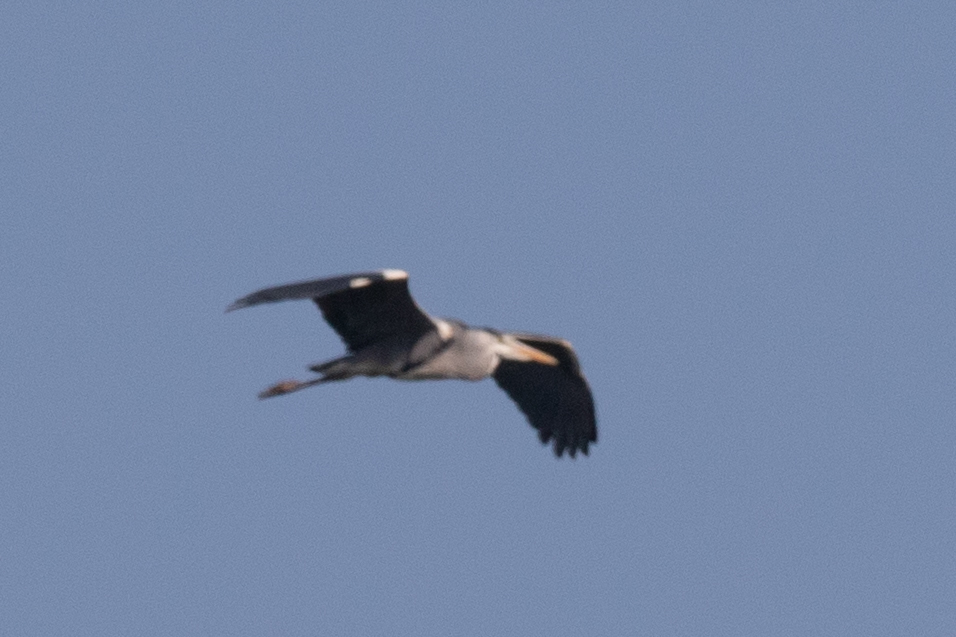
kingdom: Animalia
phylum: Chordata
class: Aves
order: Pelecaniformes
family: Ardeidae
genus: Ardea
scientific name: Ardea cinerea
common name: Grey heron
